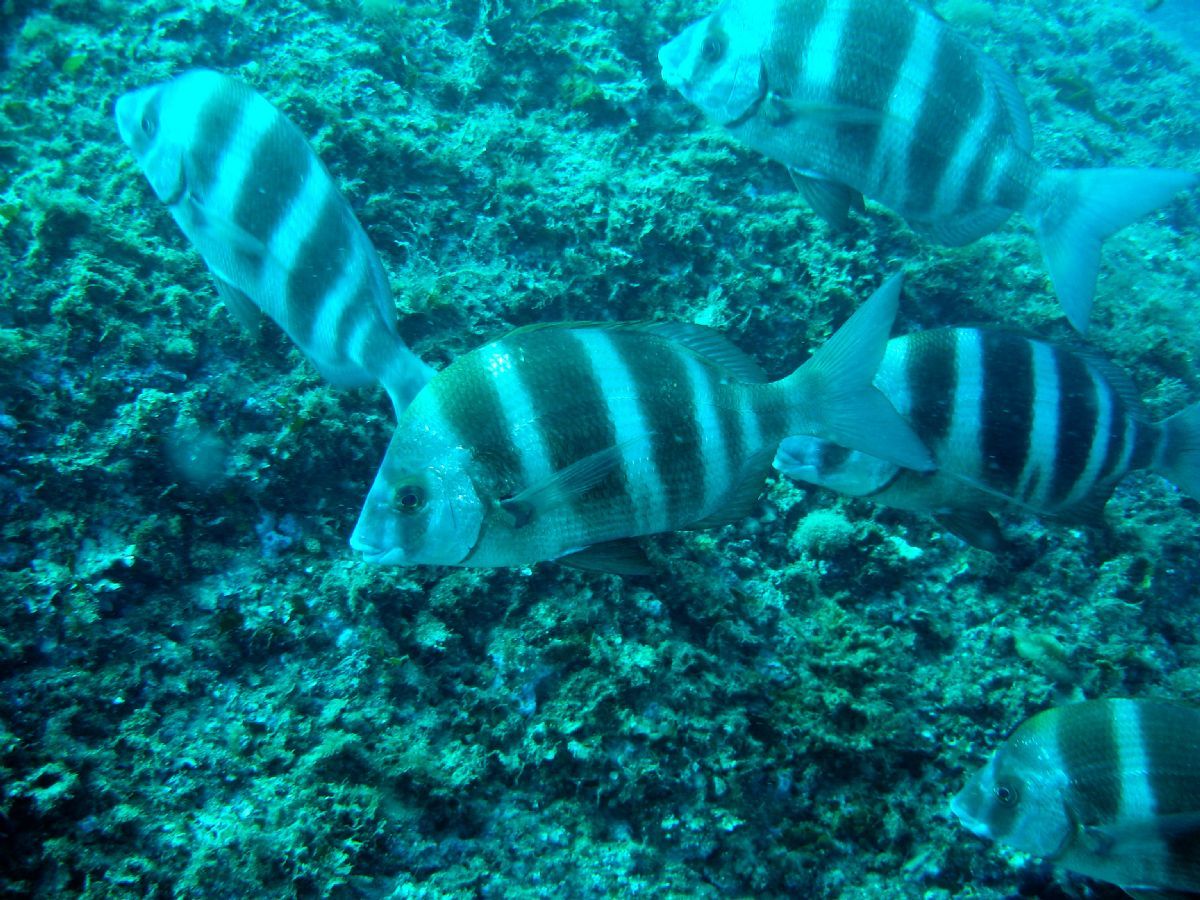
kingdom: Animalia
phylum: Chordata
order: Perciformes
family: Sparidae
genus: Diplodus
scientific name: Diplodus cervinus
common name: Oman porgy
